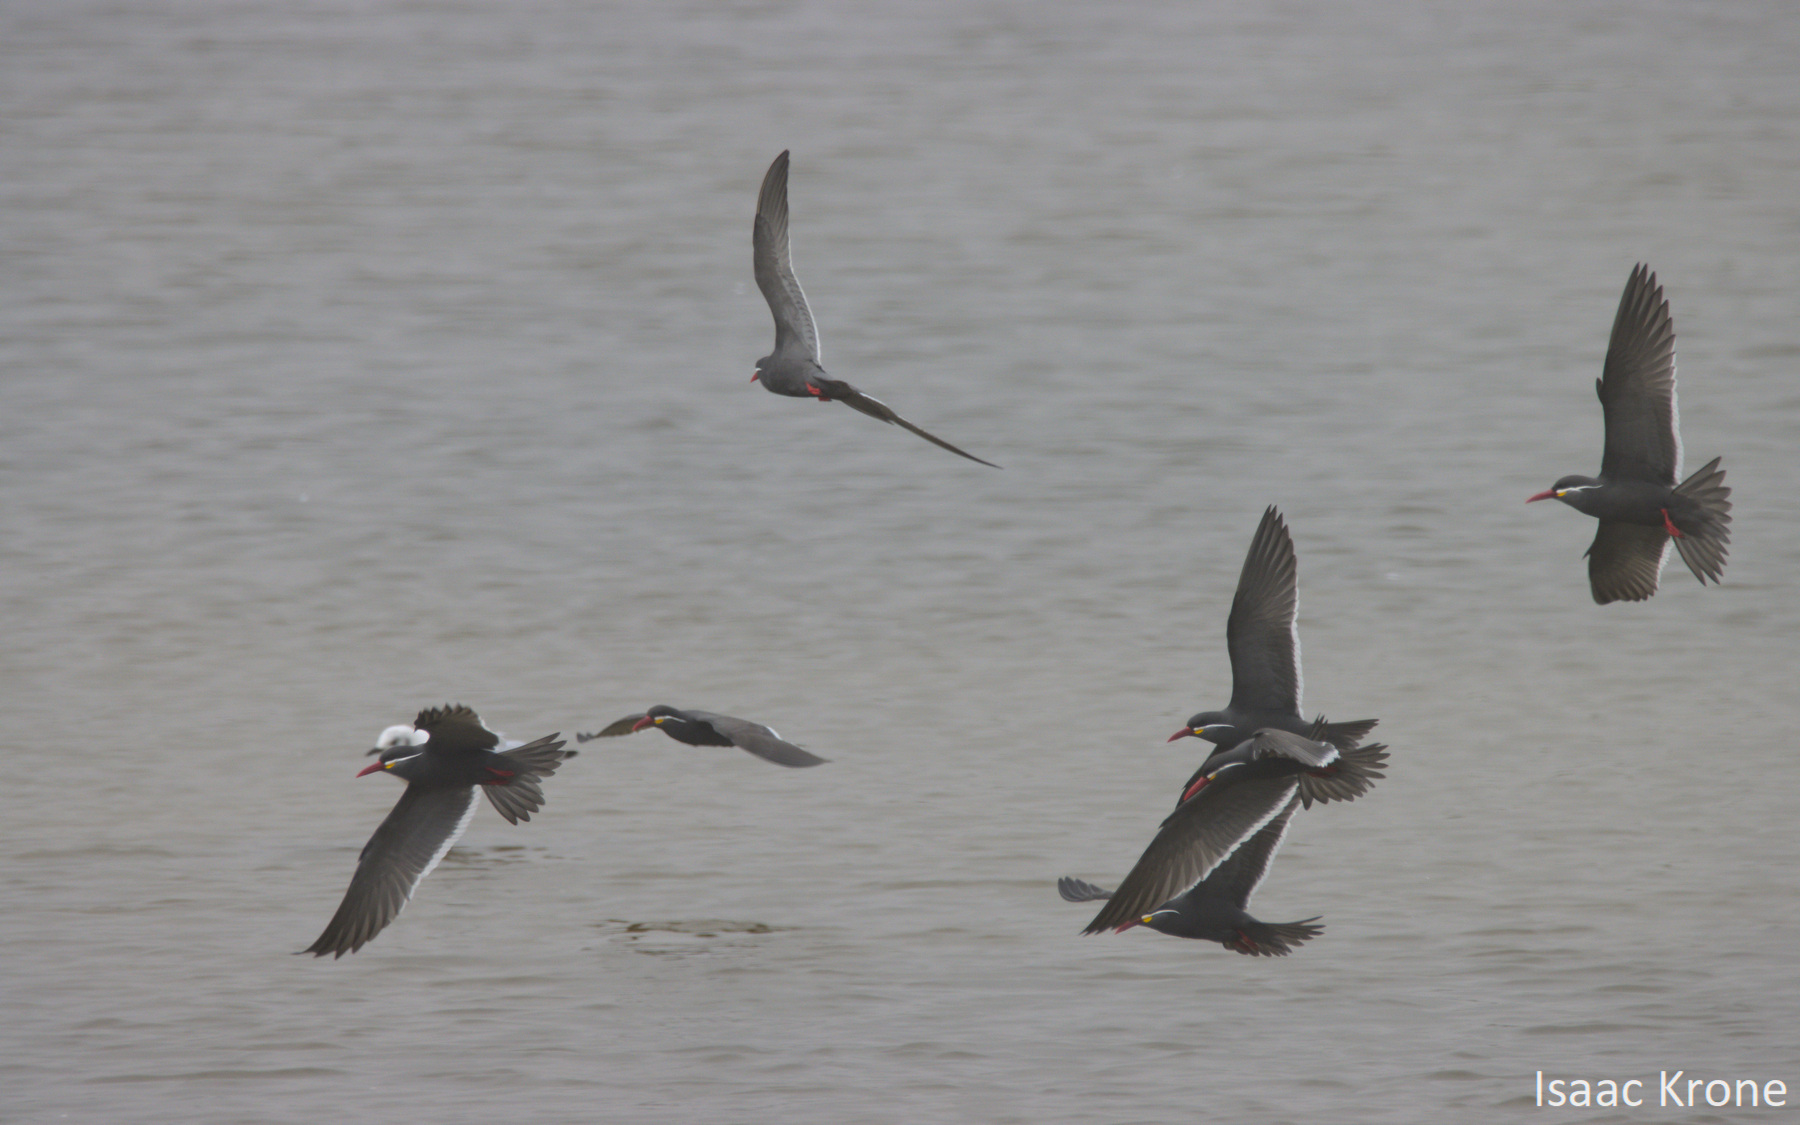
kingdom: Animalia
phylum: Chordata
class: Aves
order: Charadriiformes
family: Laridae
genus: Larosterna
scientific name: Larosterna inca
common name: Inca tern
